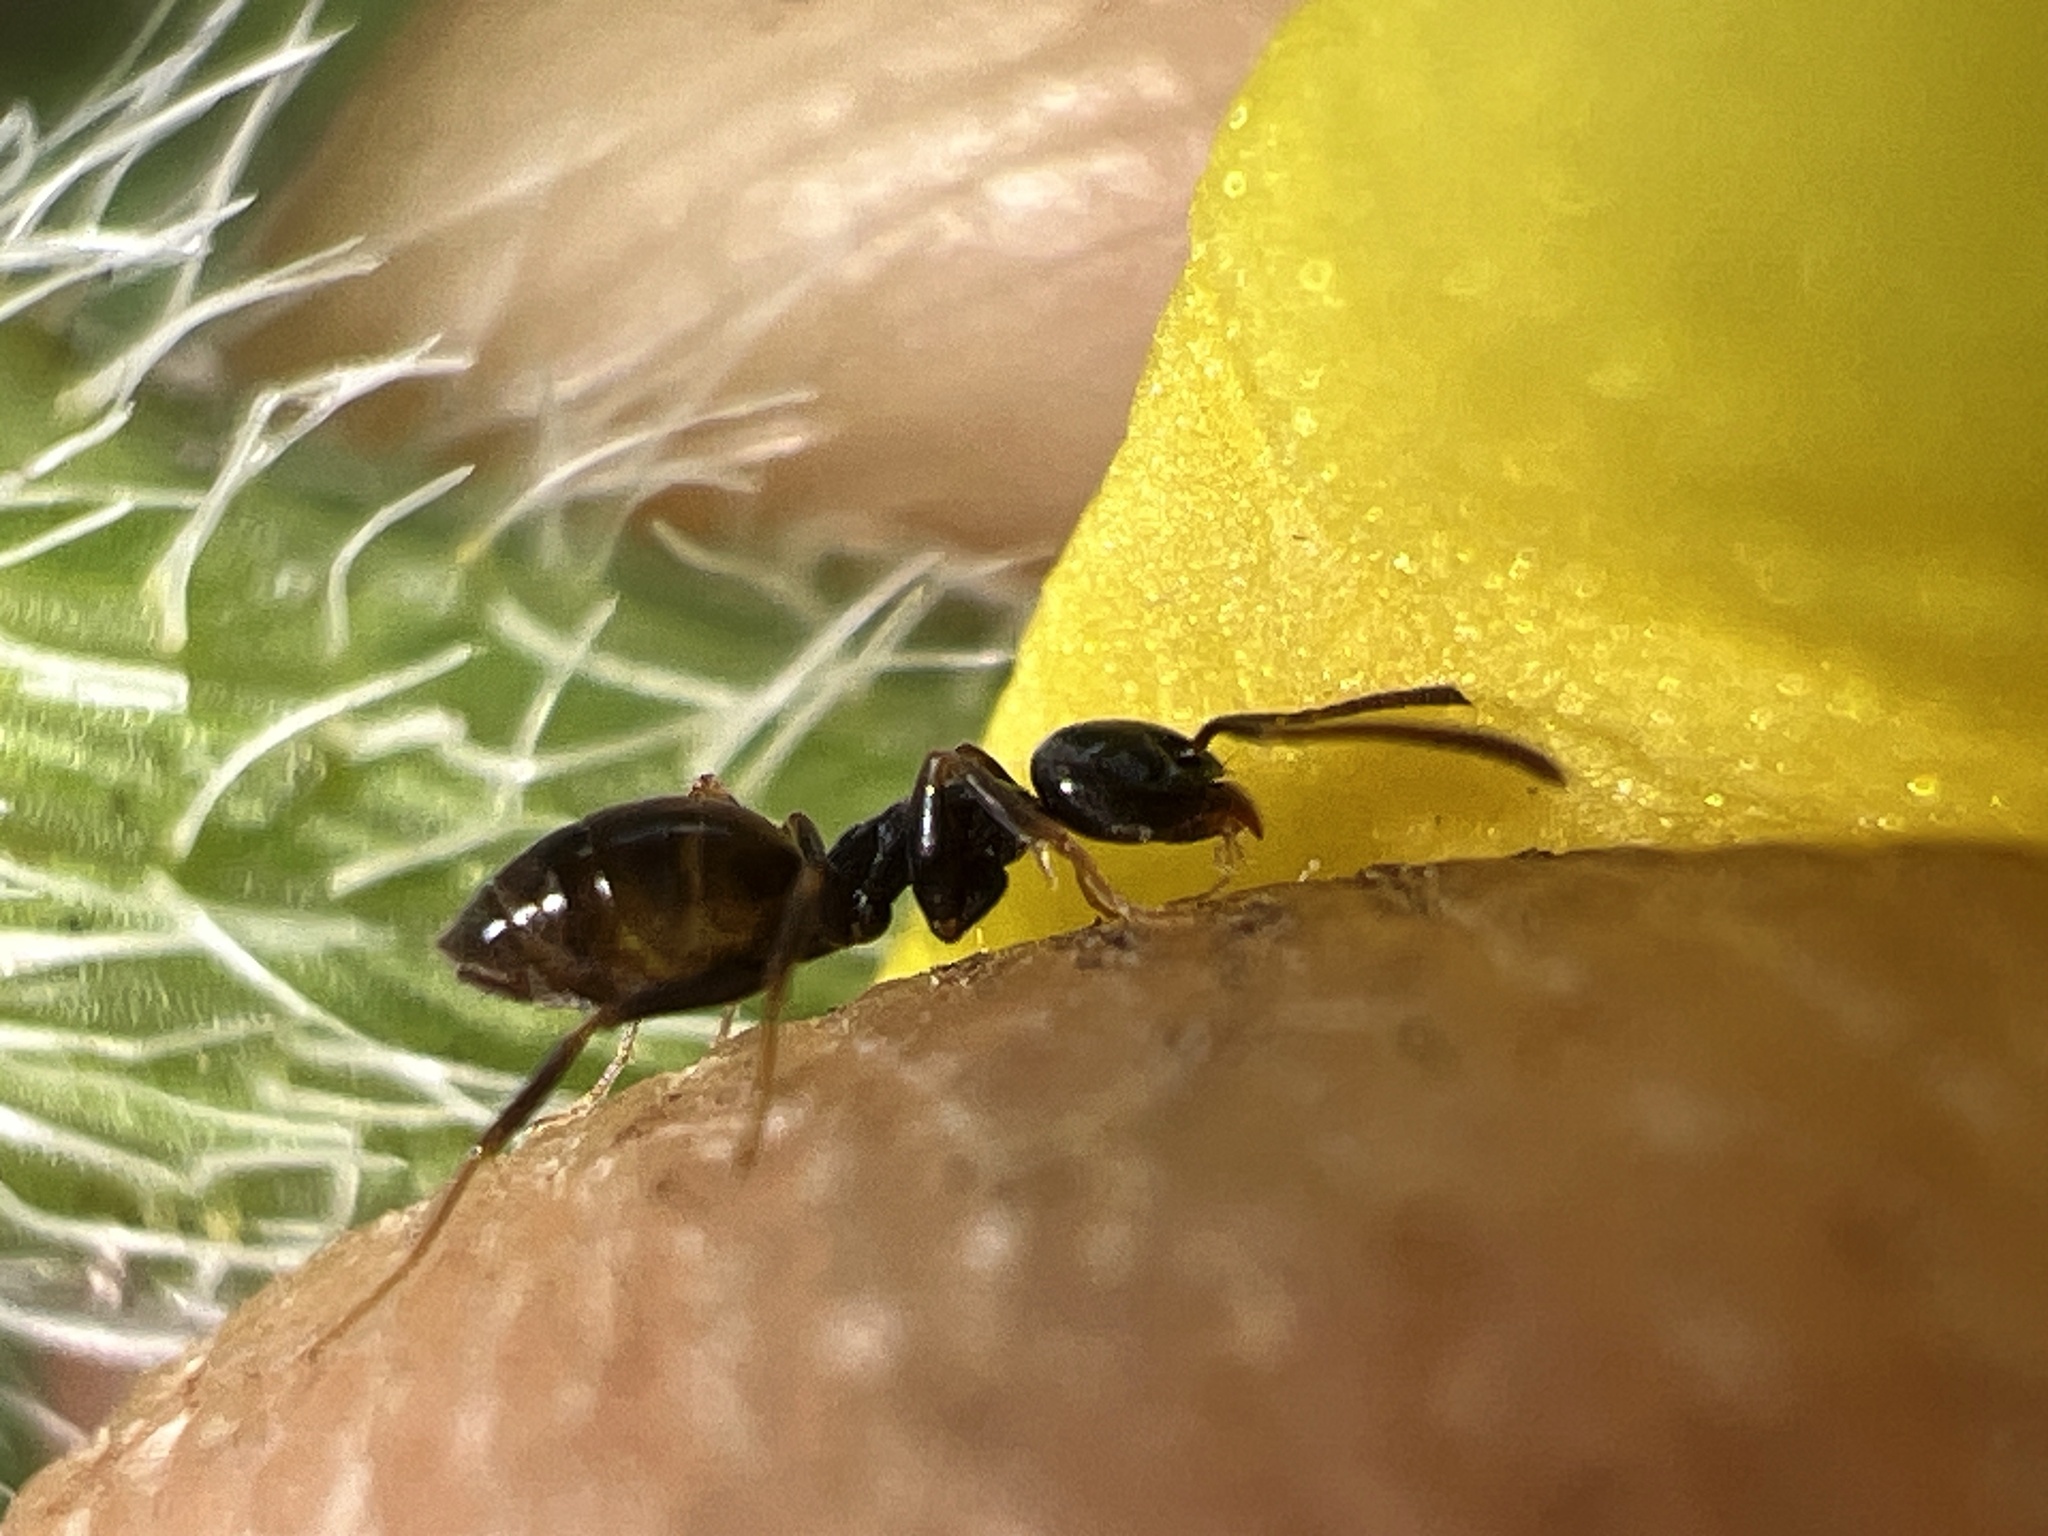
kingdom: Animalia
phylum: Arthropoda
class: Insecta
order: Hymenoptera
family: Formicidae
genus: Tapinoma
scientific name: Tapinoma sessile
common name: Odorous house ant
